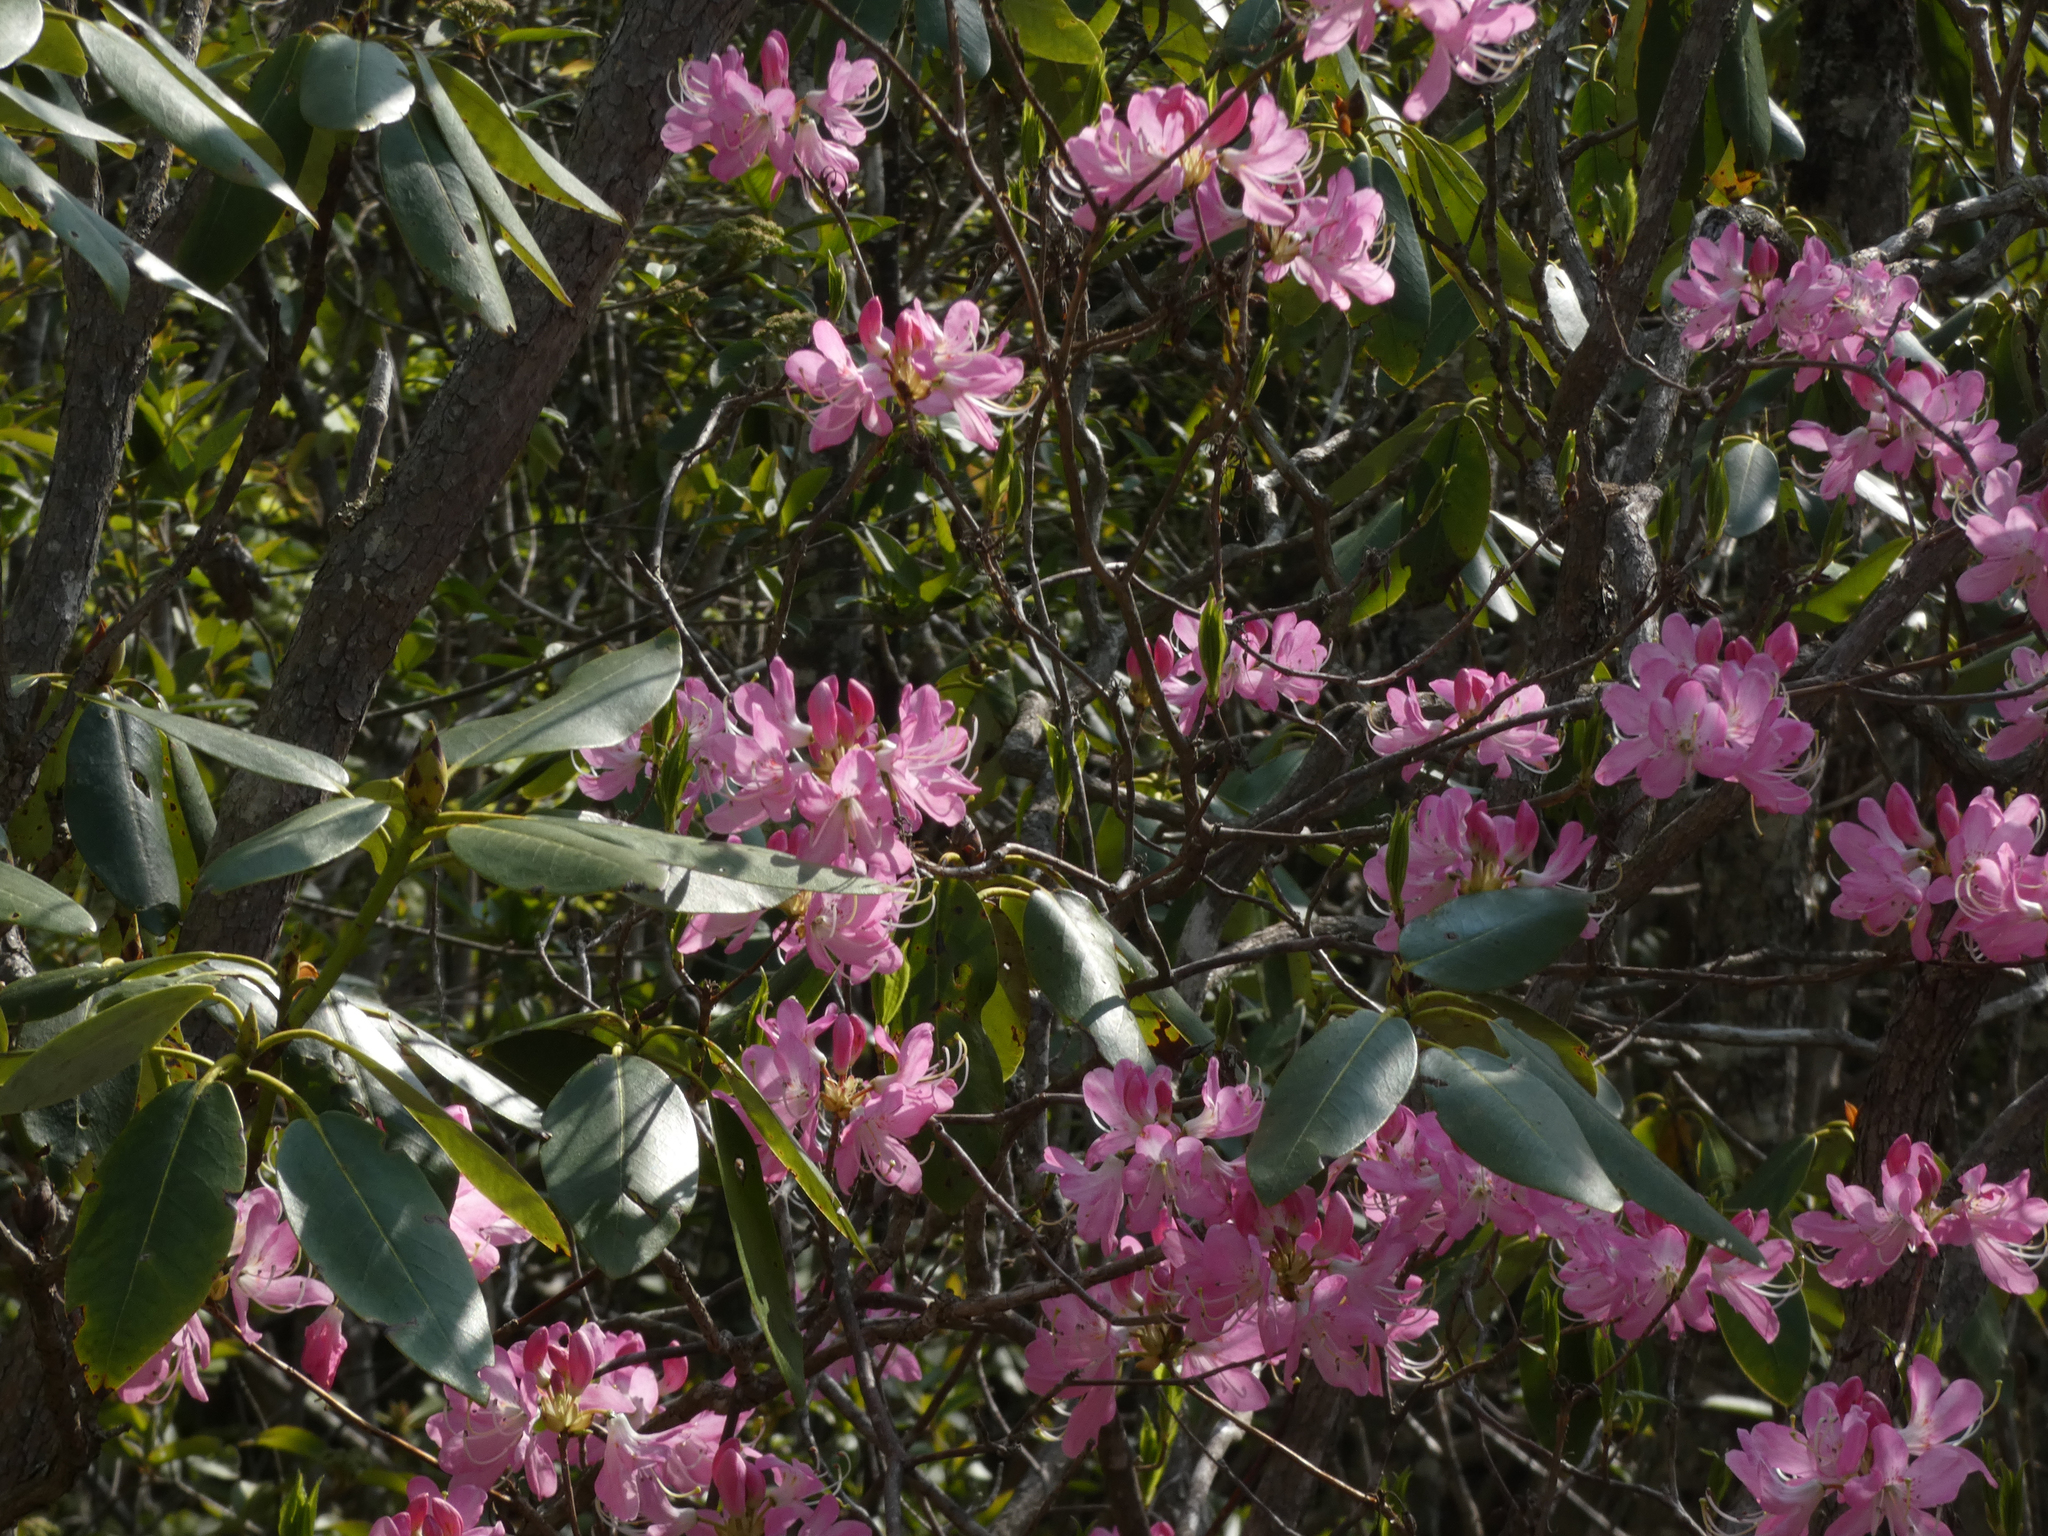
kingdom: Plantae
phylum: Tracheophyta
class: Magnoliopsida
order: Ericales
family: Ericaceae
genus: Rhododendron
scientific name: Rhododendron vaseyi
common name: Pink-shell azalea
